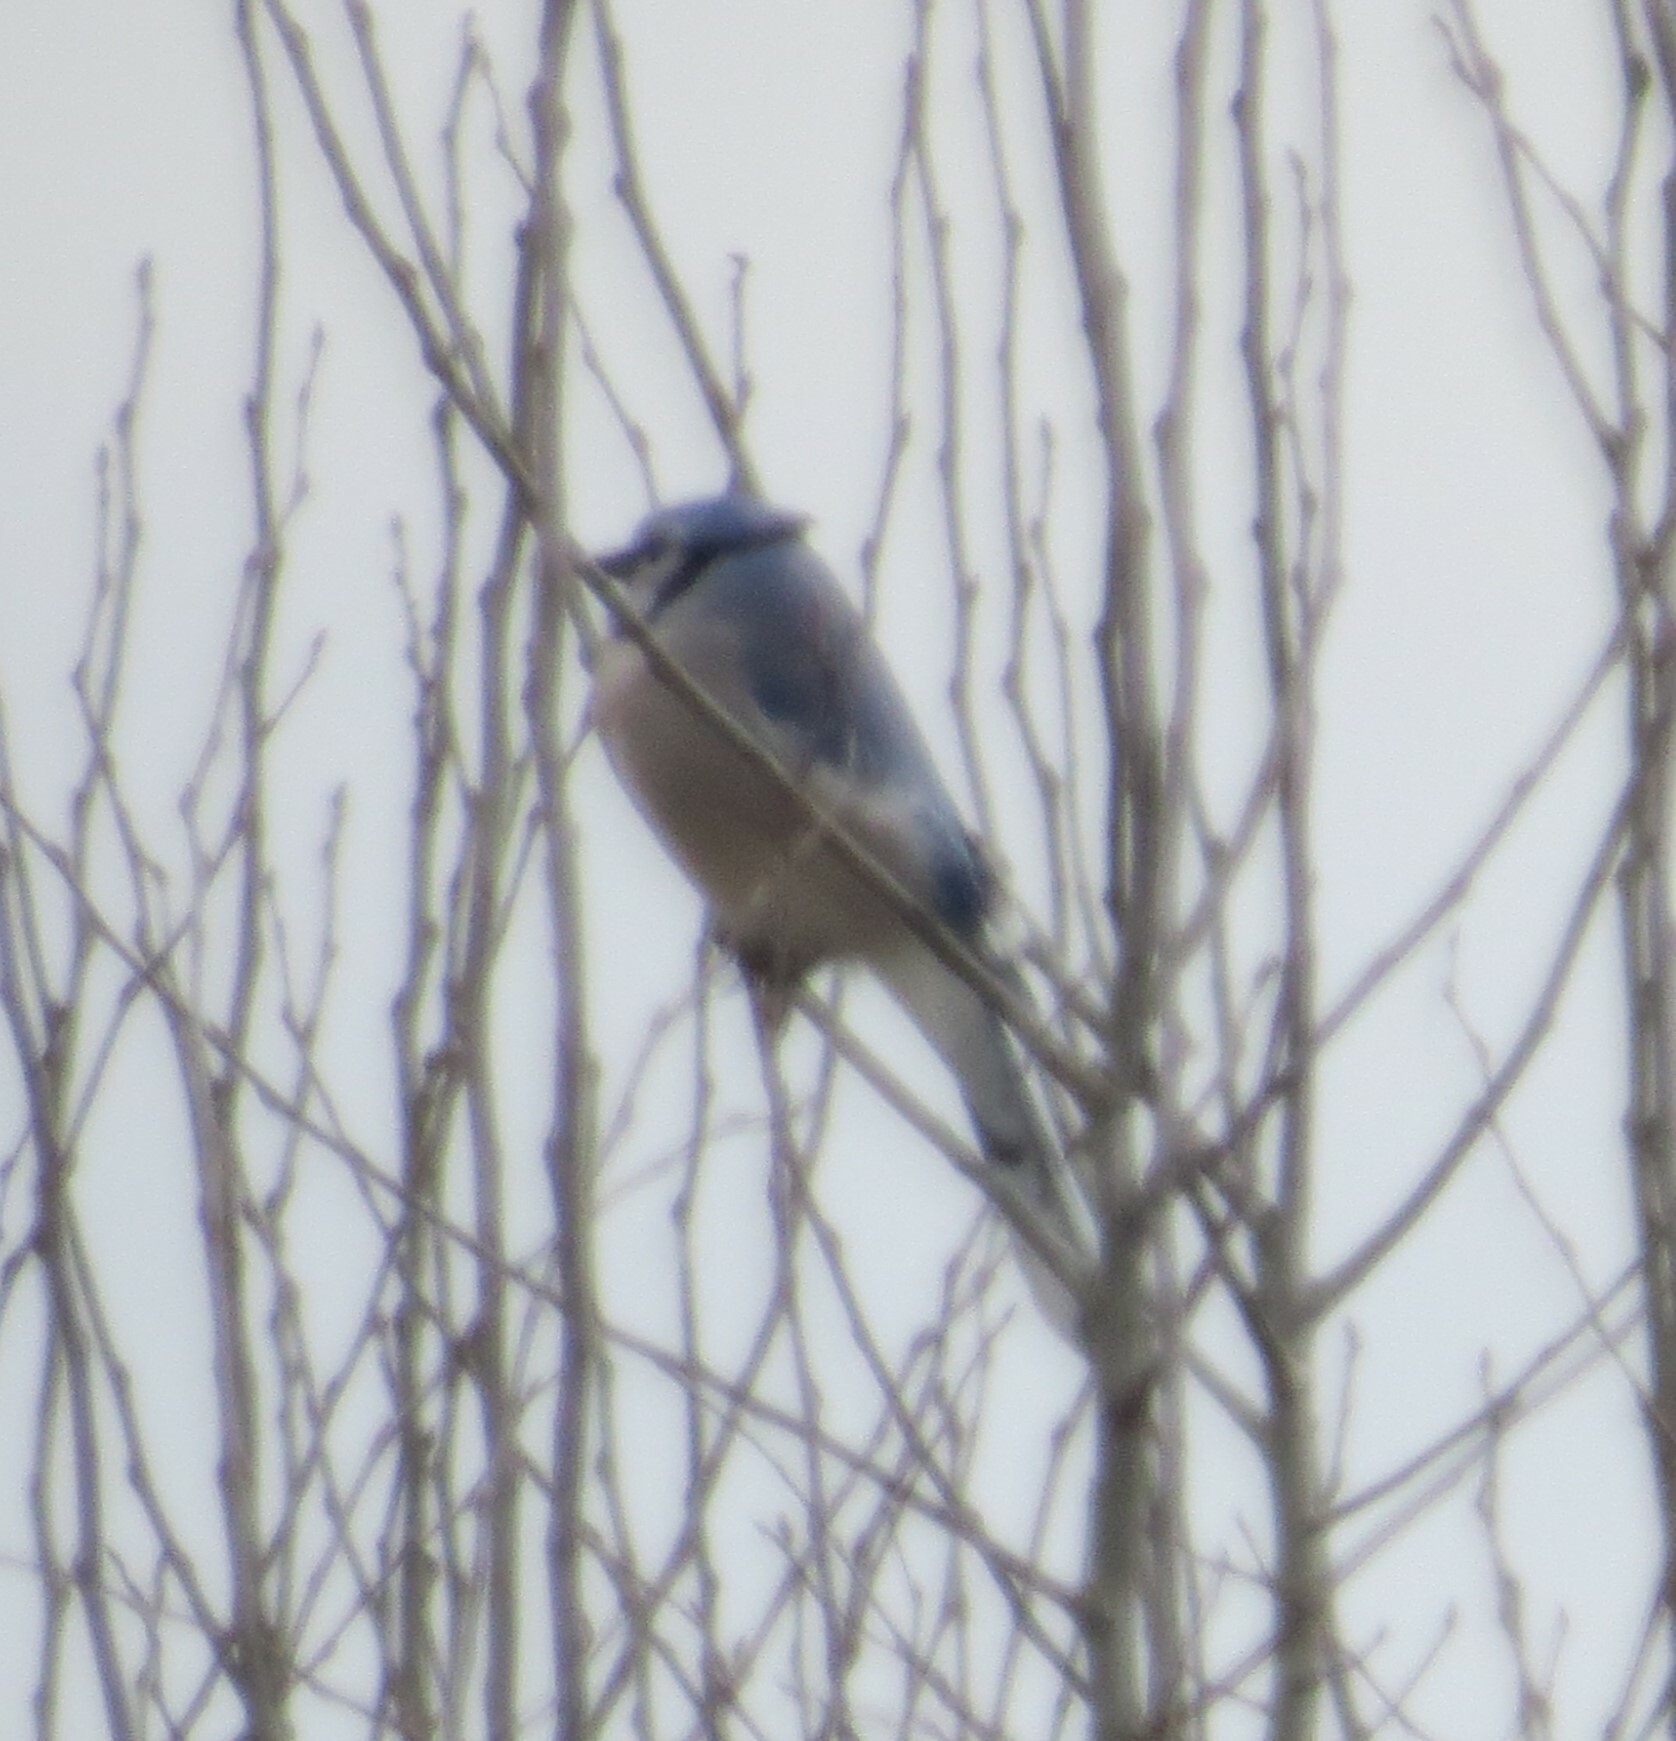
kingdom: Animalia
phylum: Chordata
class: Aves
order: Passeriformes
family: Corvidae
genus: Cyanocitta
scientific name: Cyanocitta cristata
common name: Blue jay
